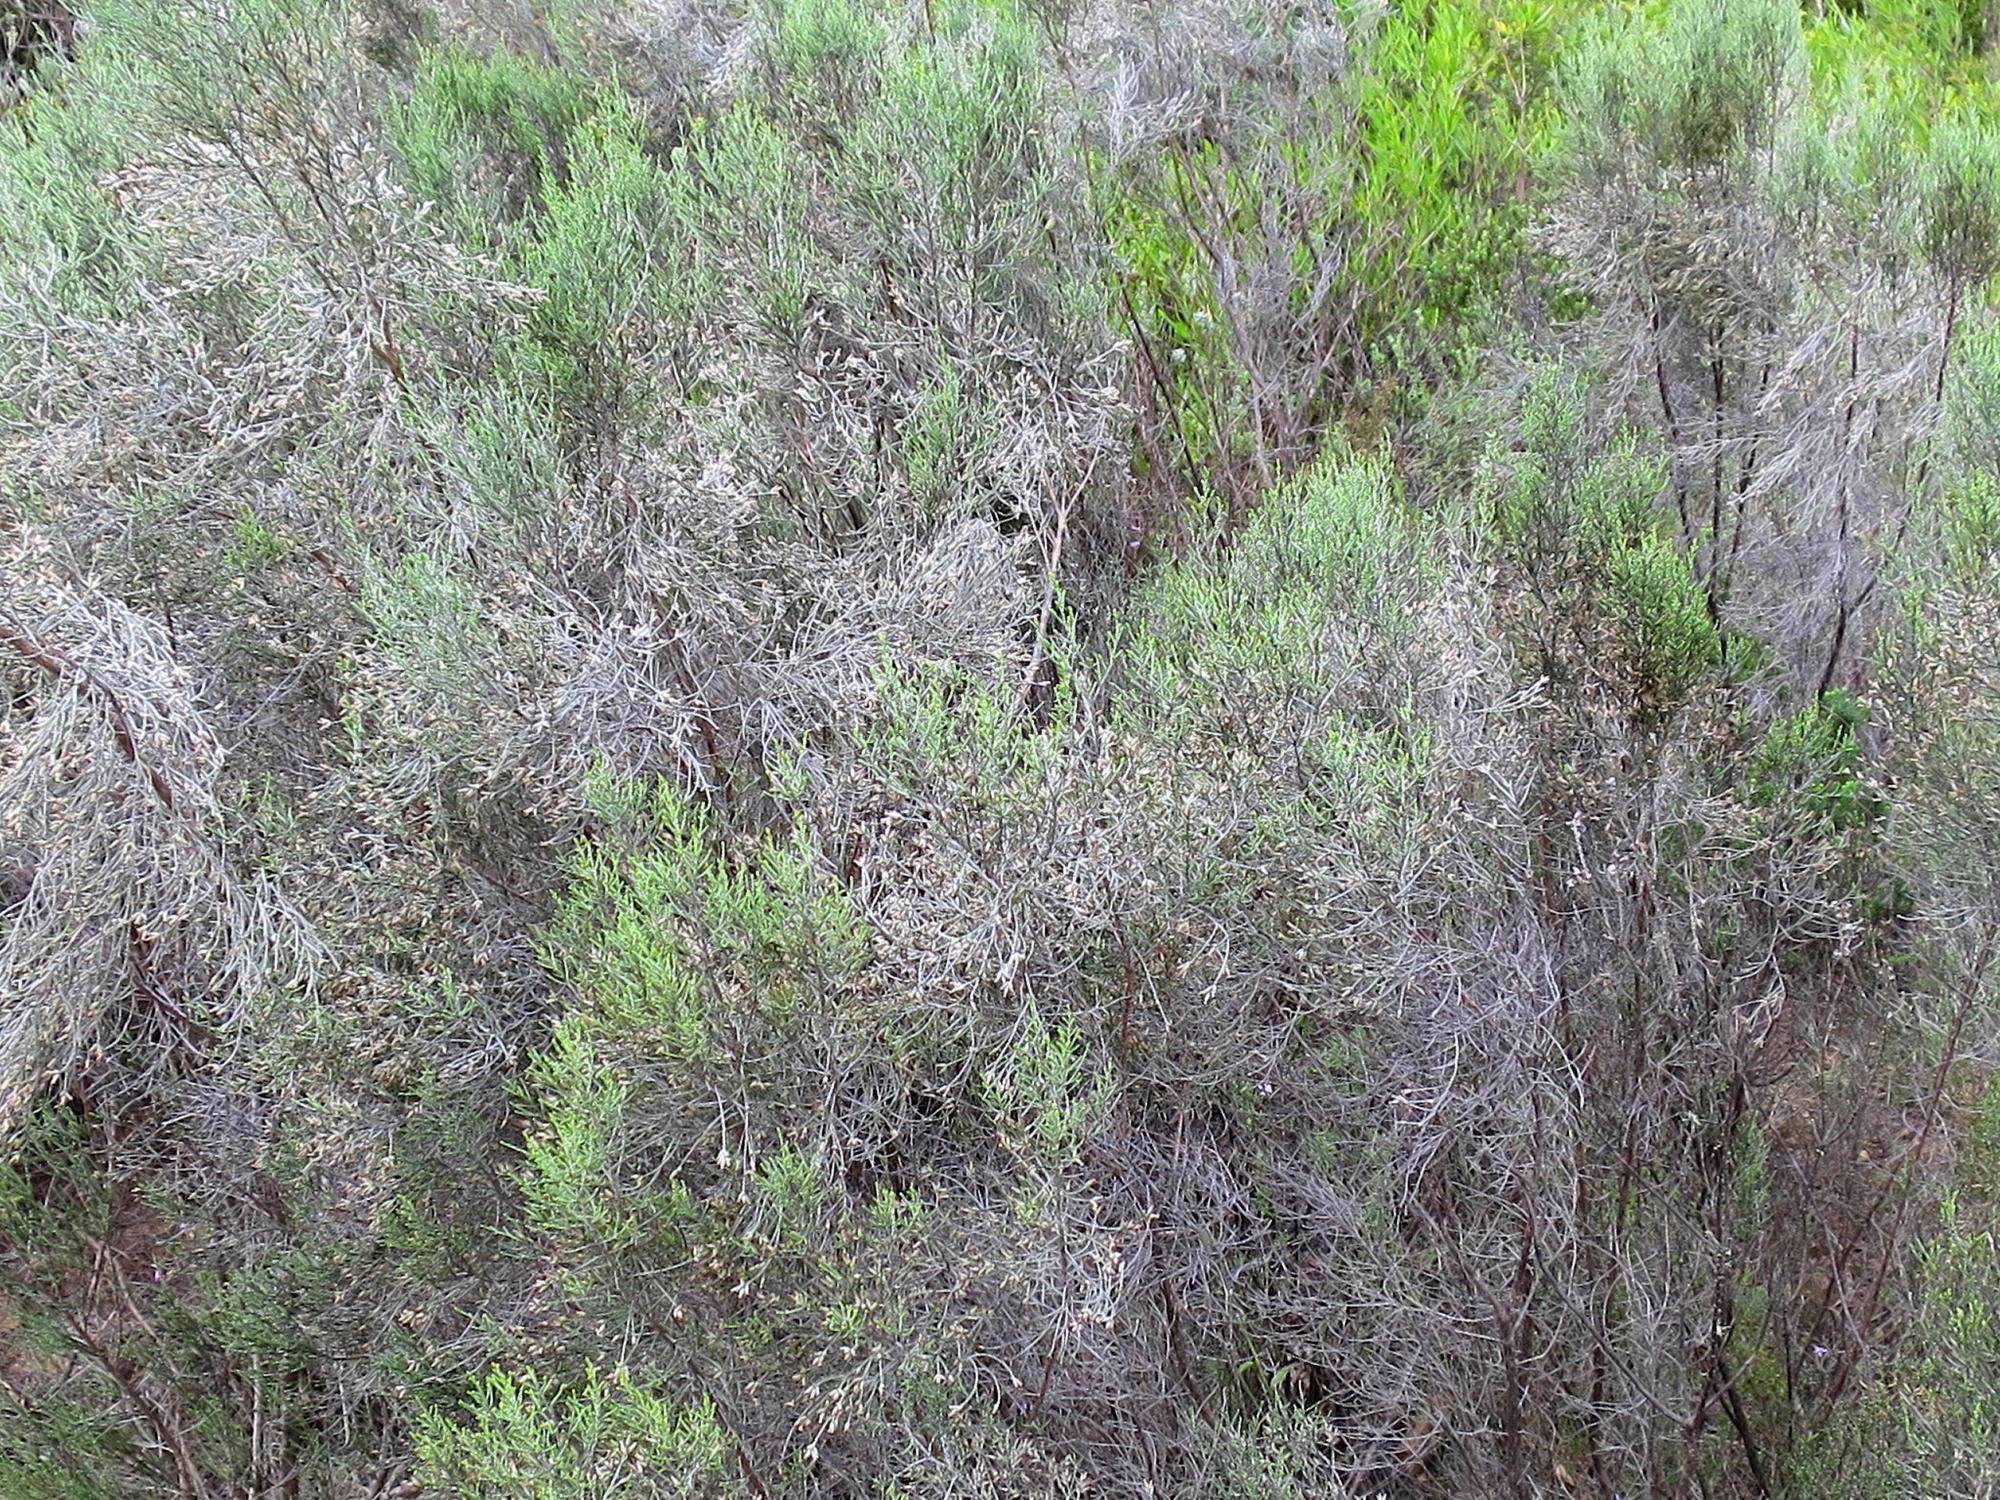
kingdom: Plantae
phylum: Tracheophyta
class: Magnoliopsida
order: Asterales
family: Asteraceae
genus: Dicerothamnus
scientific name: Dicerothamnus rhinocerotis
